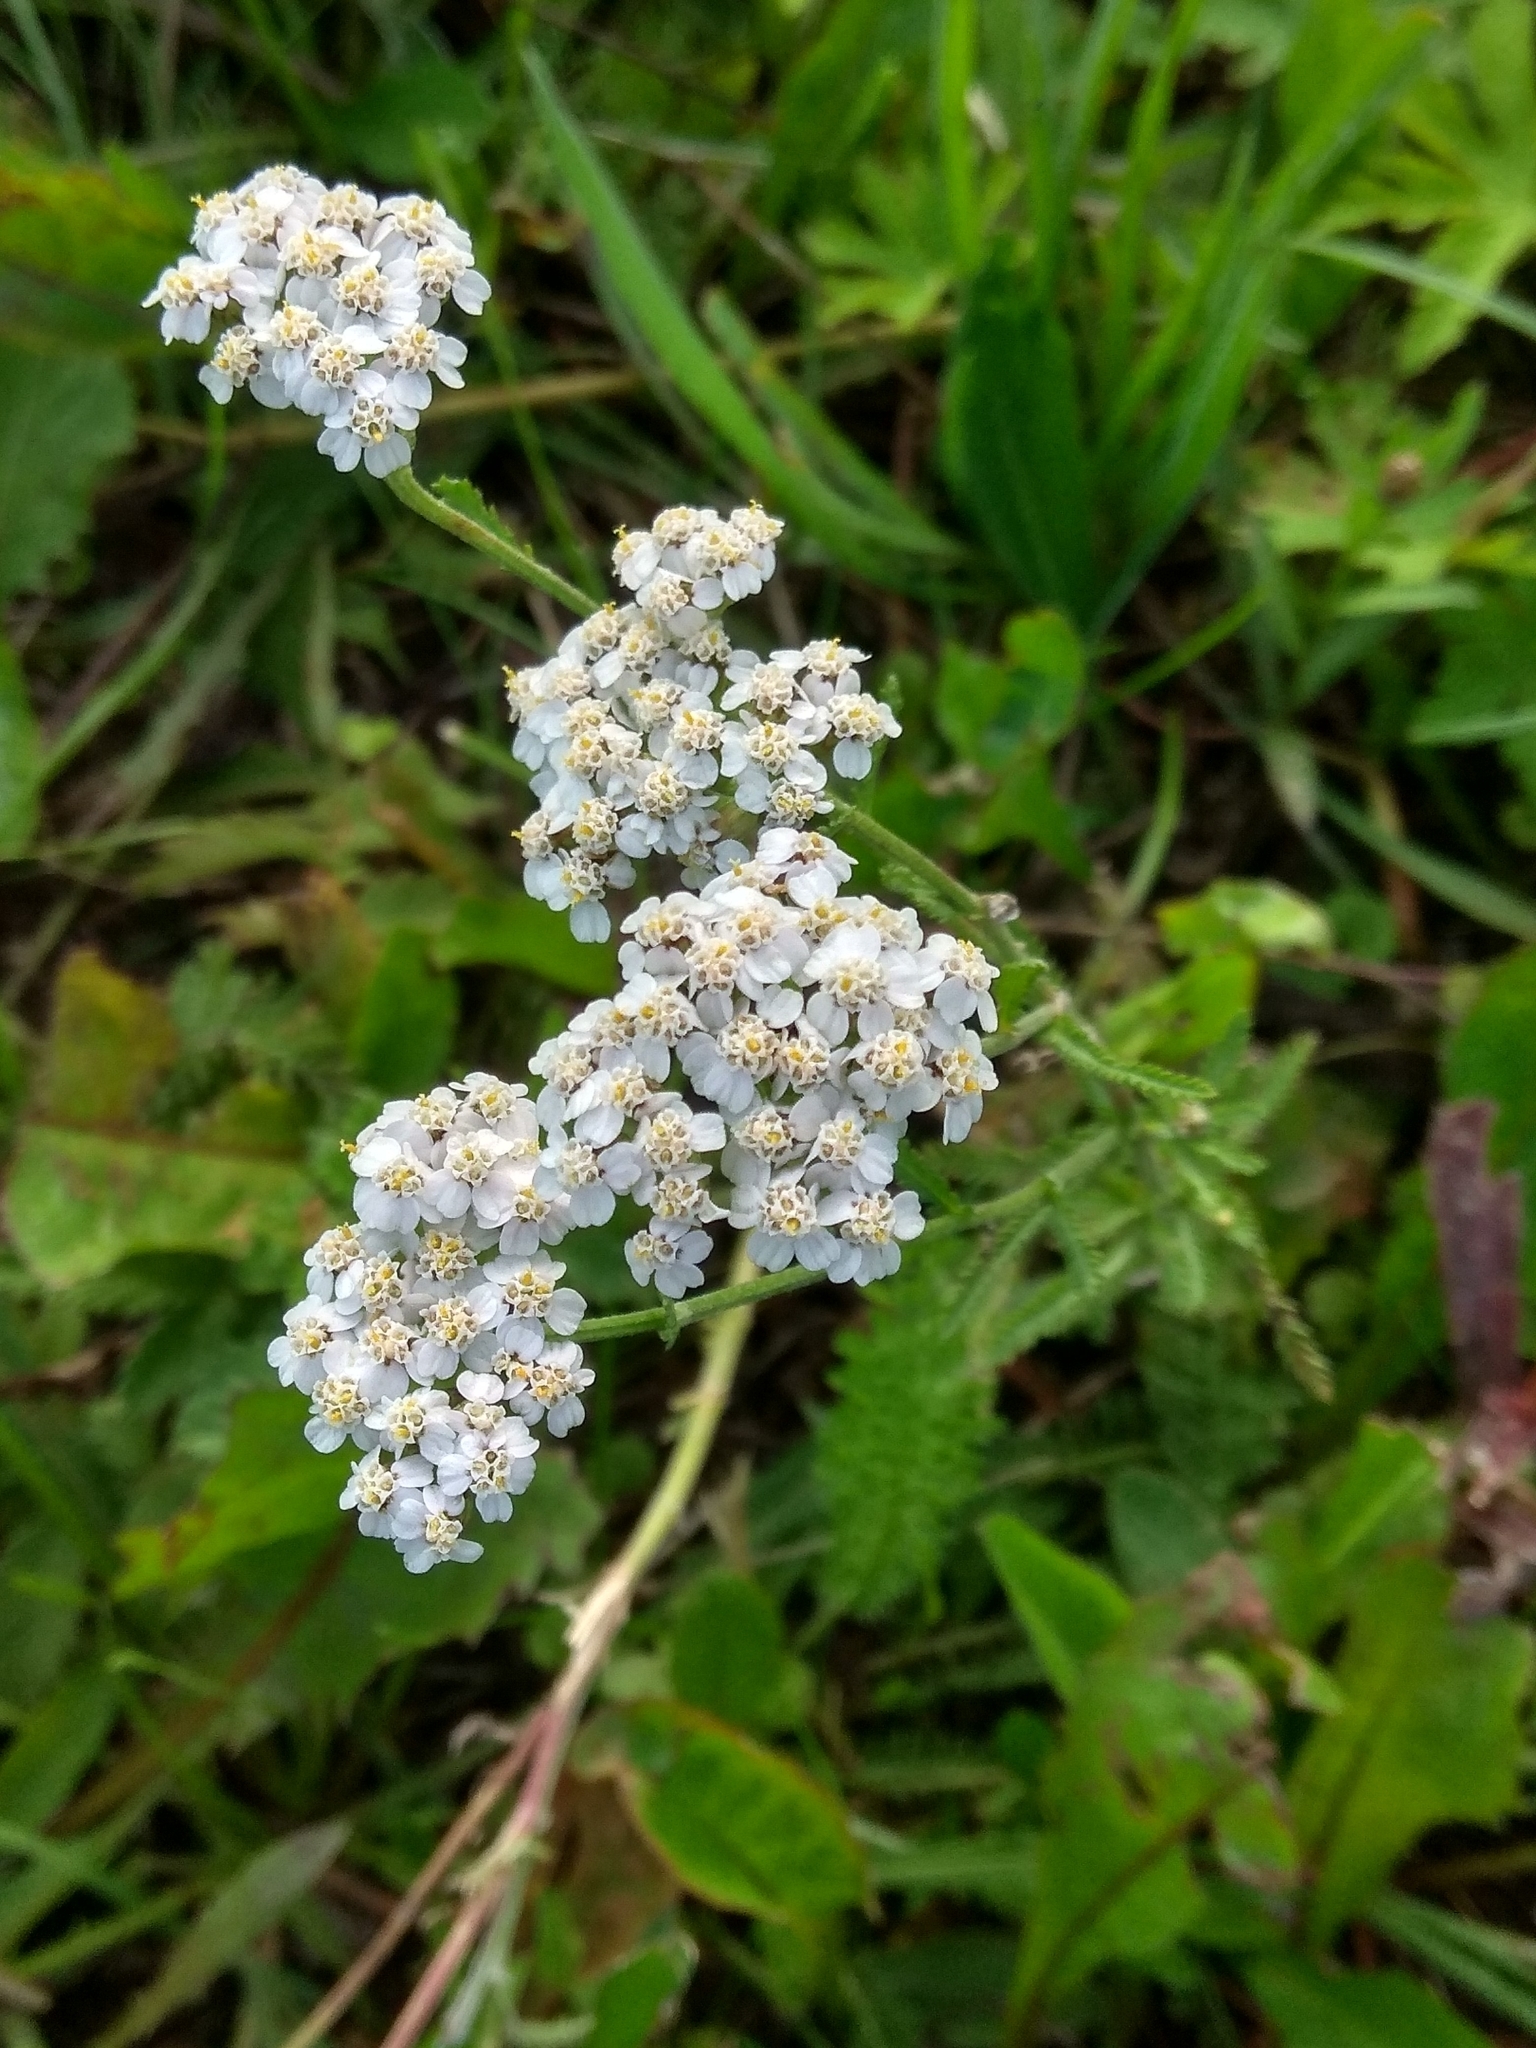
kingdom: Plantae
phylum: Tracheophyta
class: Magnoliopsida
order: Asterales
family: Asteraceae
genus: Achillea
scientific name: Achillea millefolium
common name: Yarrow
